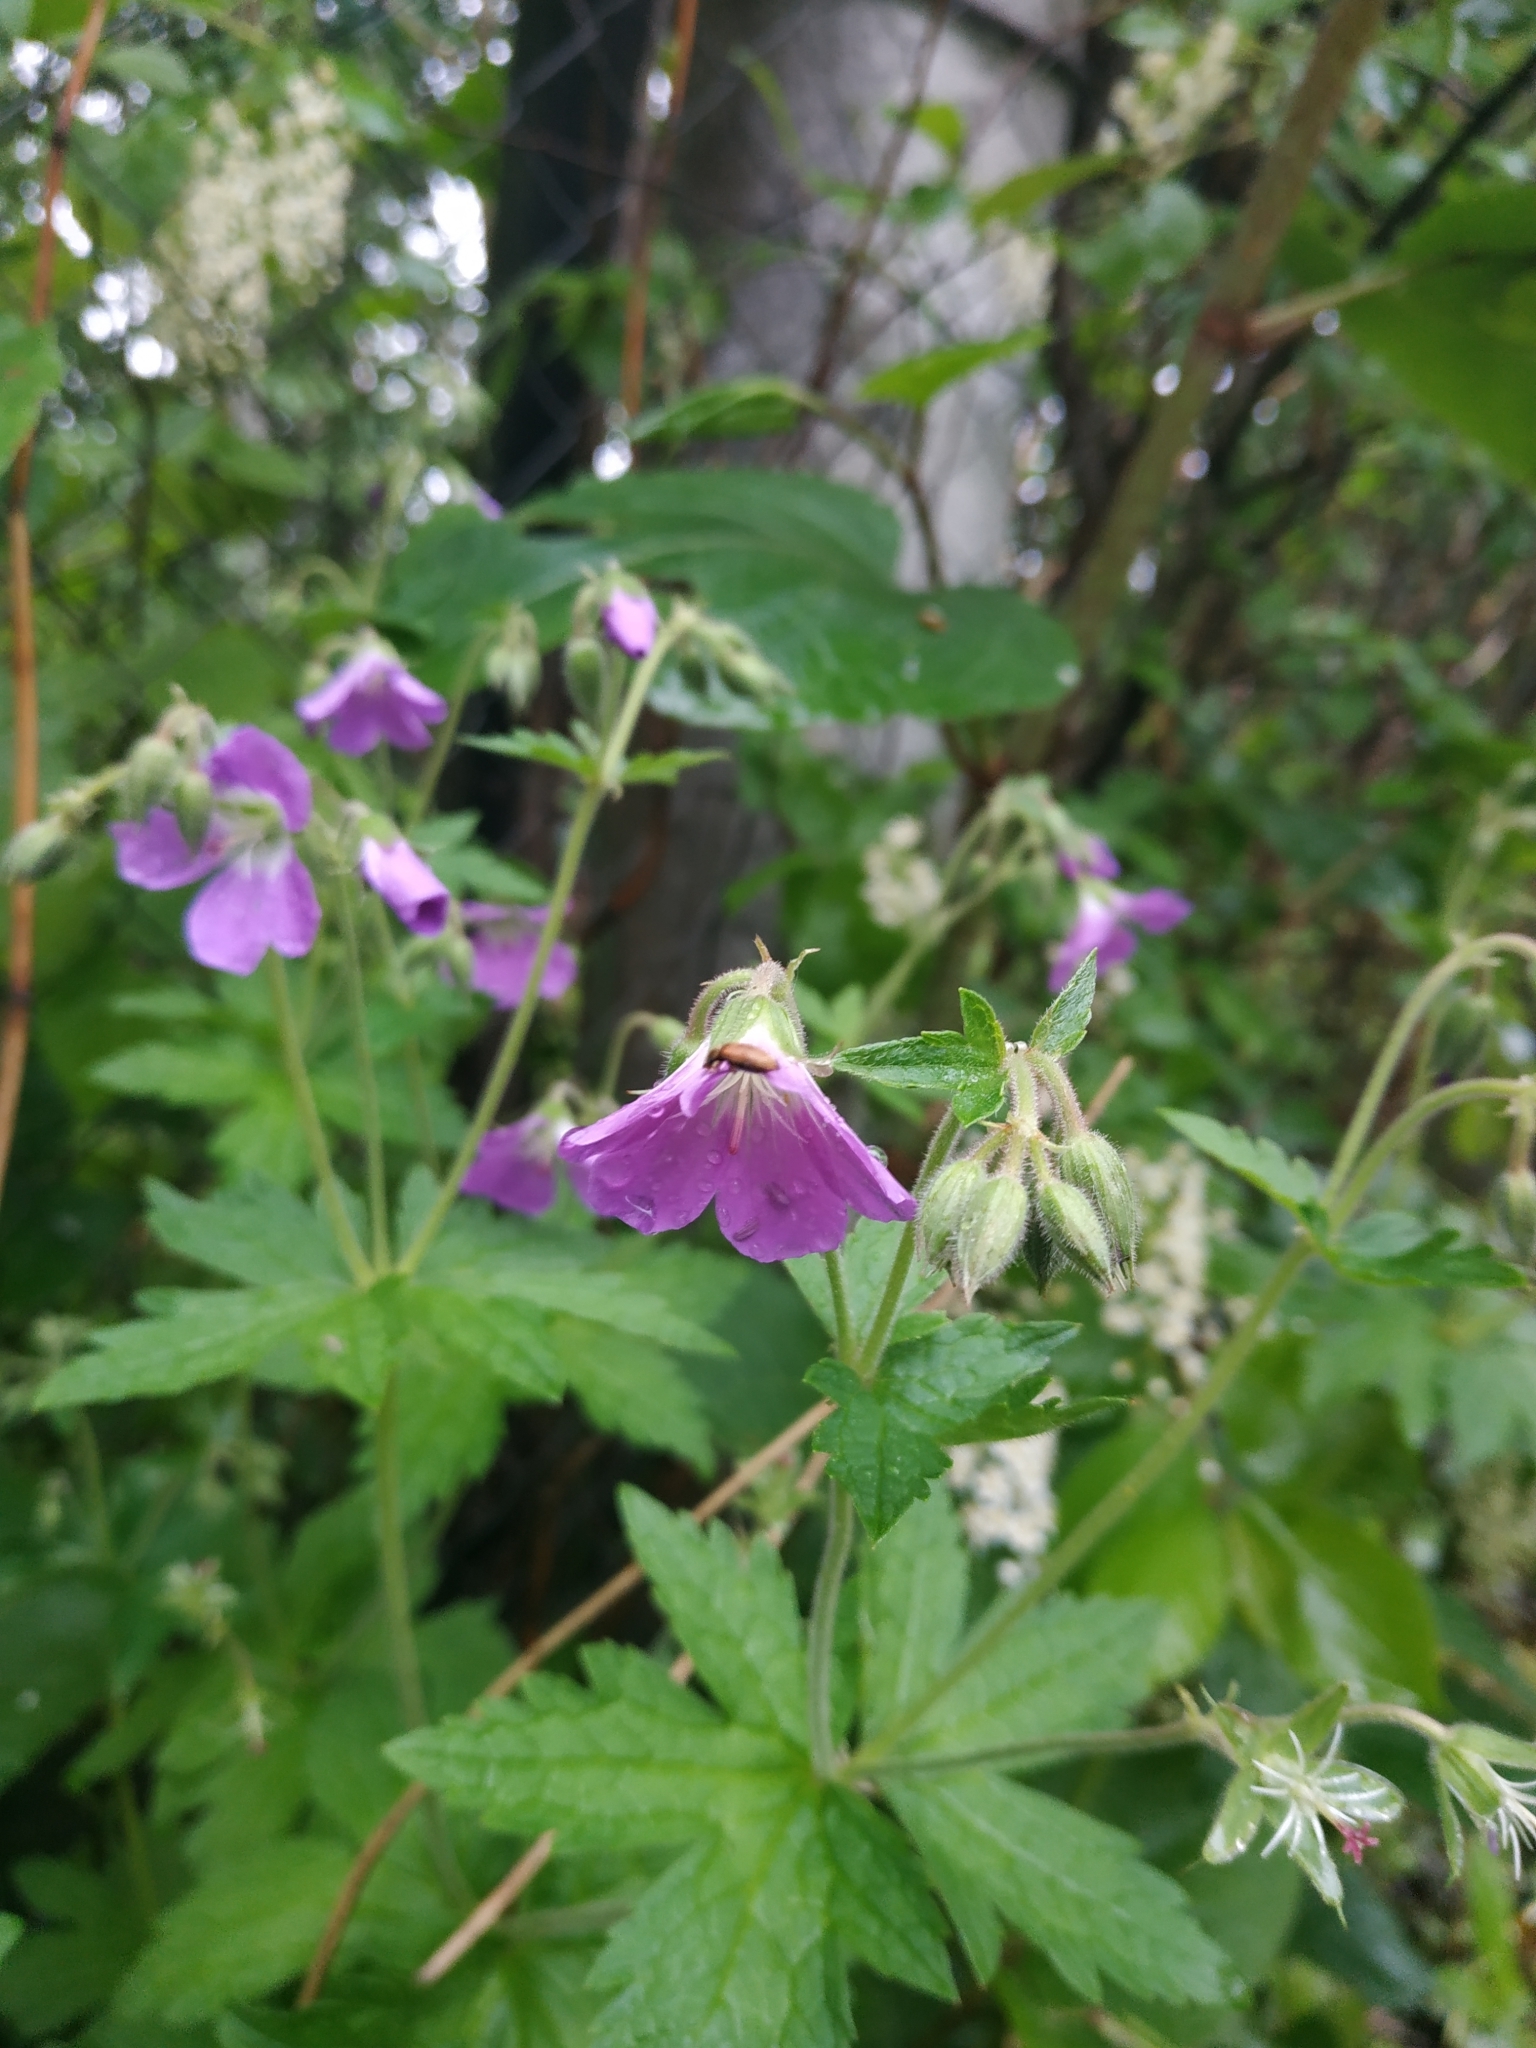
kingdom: Plantae
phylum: Tracheophyta
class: Magnoliopsida
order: Geraniales
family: Geraniaceae
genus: Geranium
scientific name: Geranium sylvaticum
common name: Wood crane's-bill
